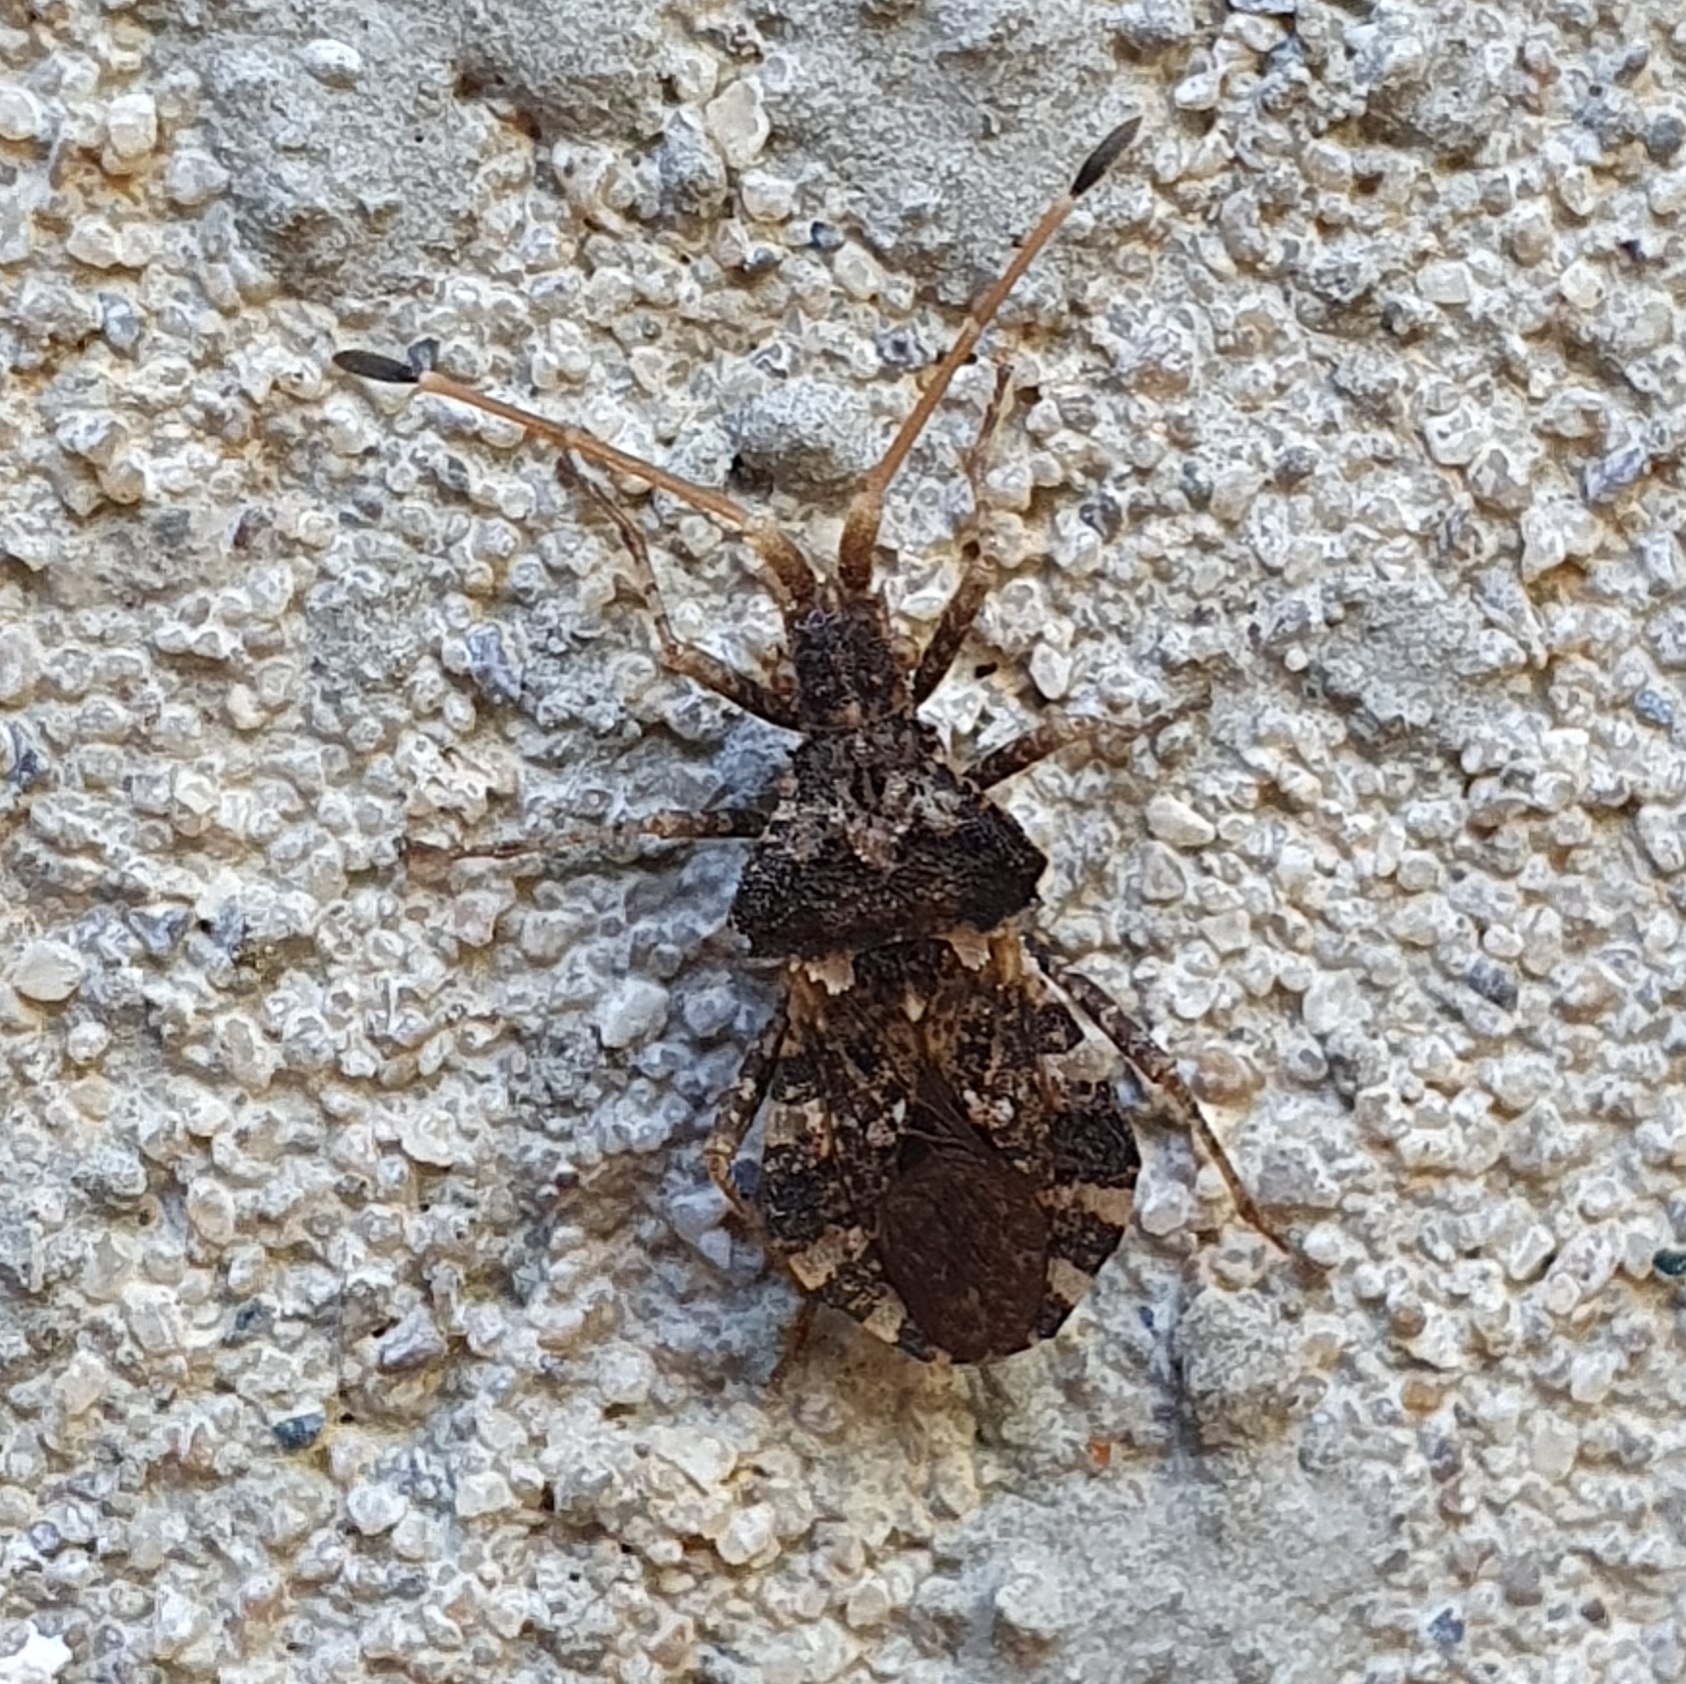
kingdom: Animalia
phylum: Arthropoda
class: Insecta
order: Hemiptera
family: Coreidae
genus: Centrocoris
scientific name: Centrocoris variegatus
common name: Leaf-footed bug
